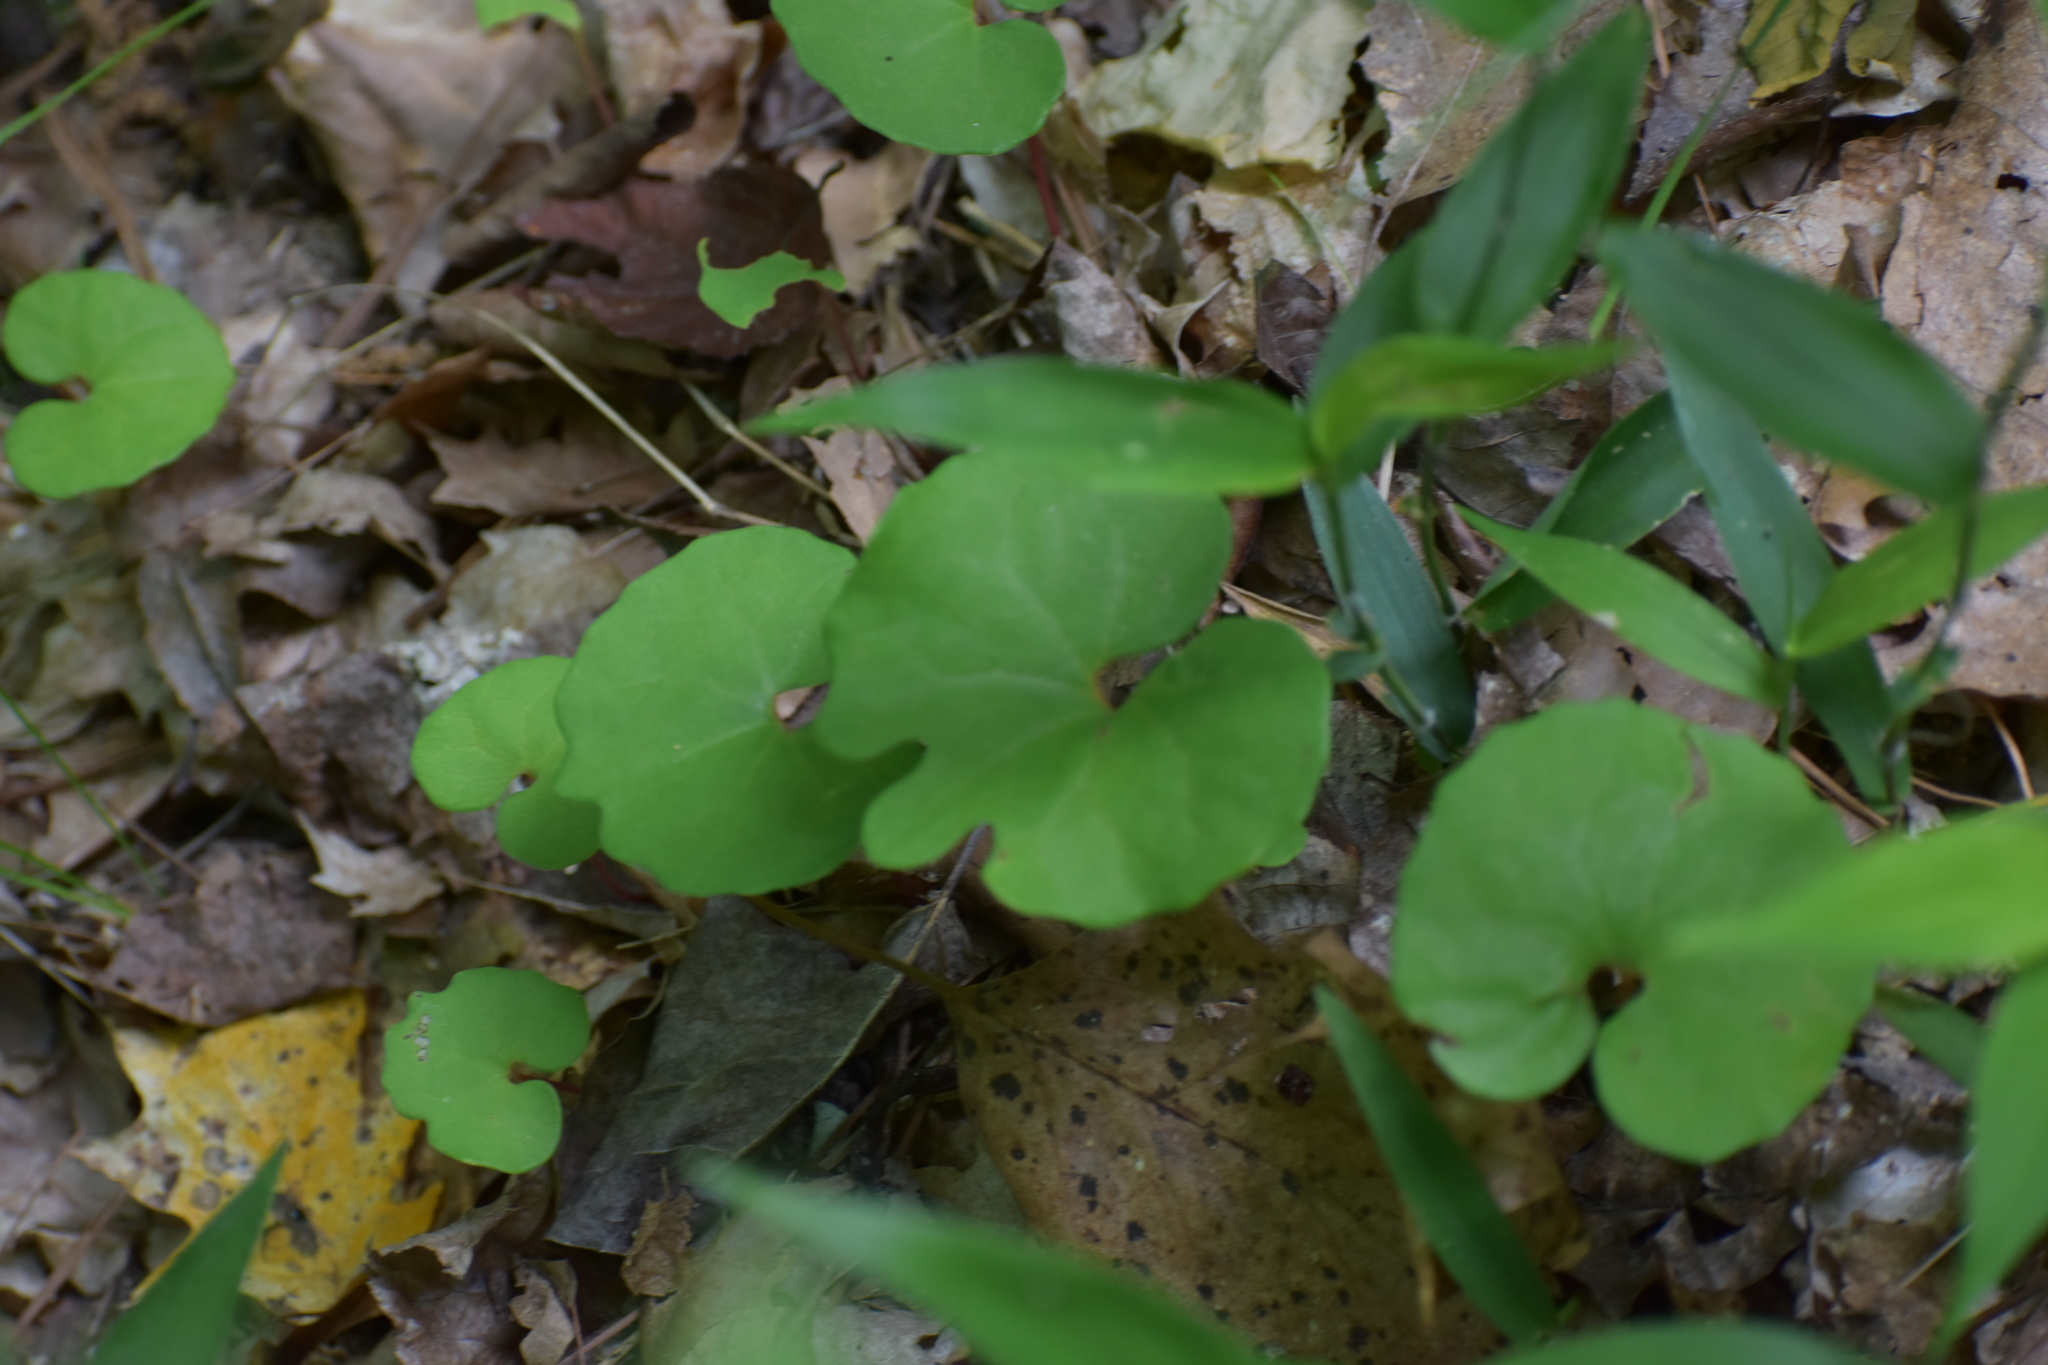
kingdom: Plantae
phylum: Tracheophyta
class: Magnoliopsida
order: Ranunculales
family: Papaveraceae
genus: Sanguinaria
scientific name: Sanguinaria canadensis
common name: Bloodroot
